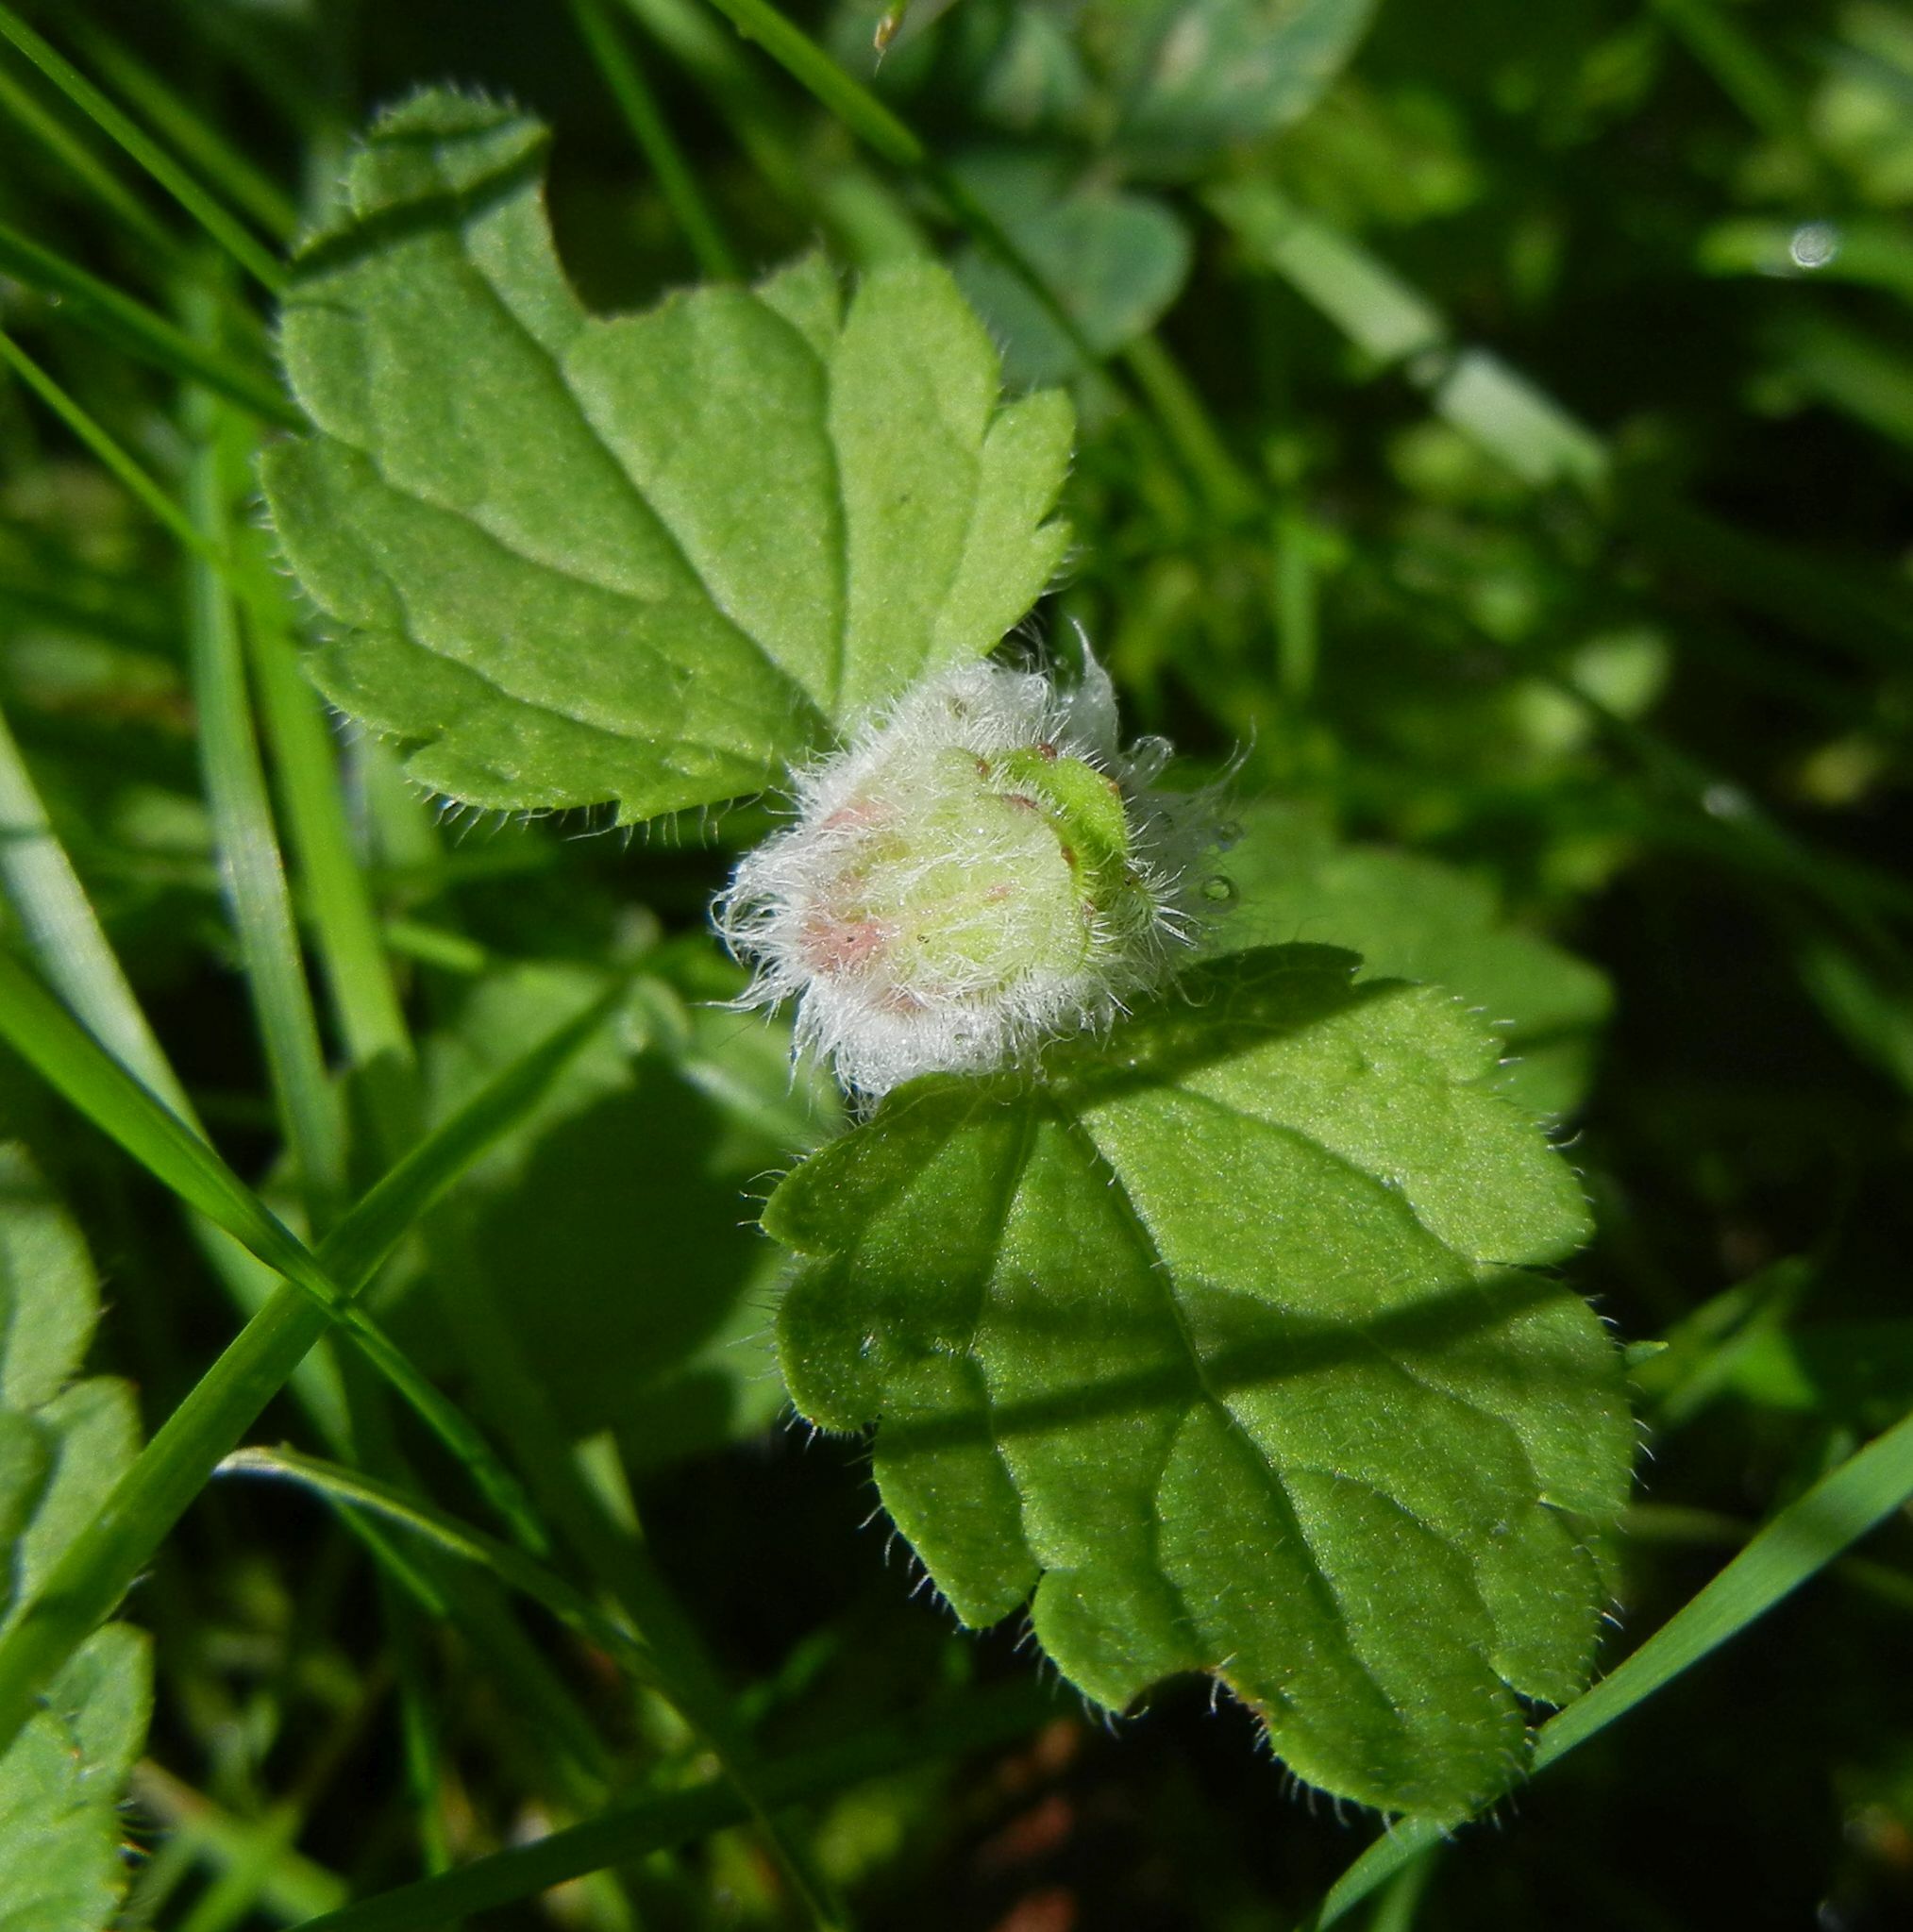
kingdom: Animalia
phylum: Arthropoda
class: Insecta
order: Diptera
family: Cecidomyiidae
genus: Jaapiella
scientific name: Jaapiella veronicae
